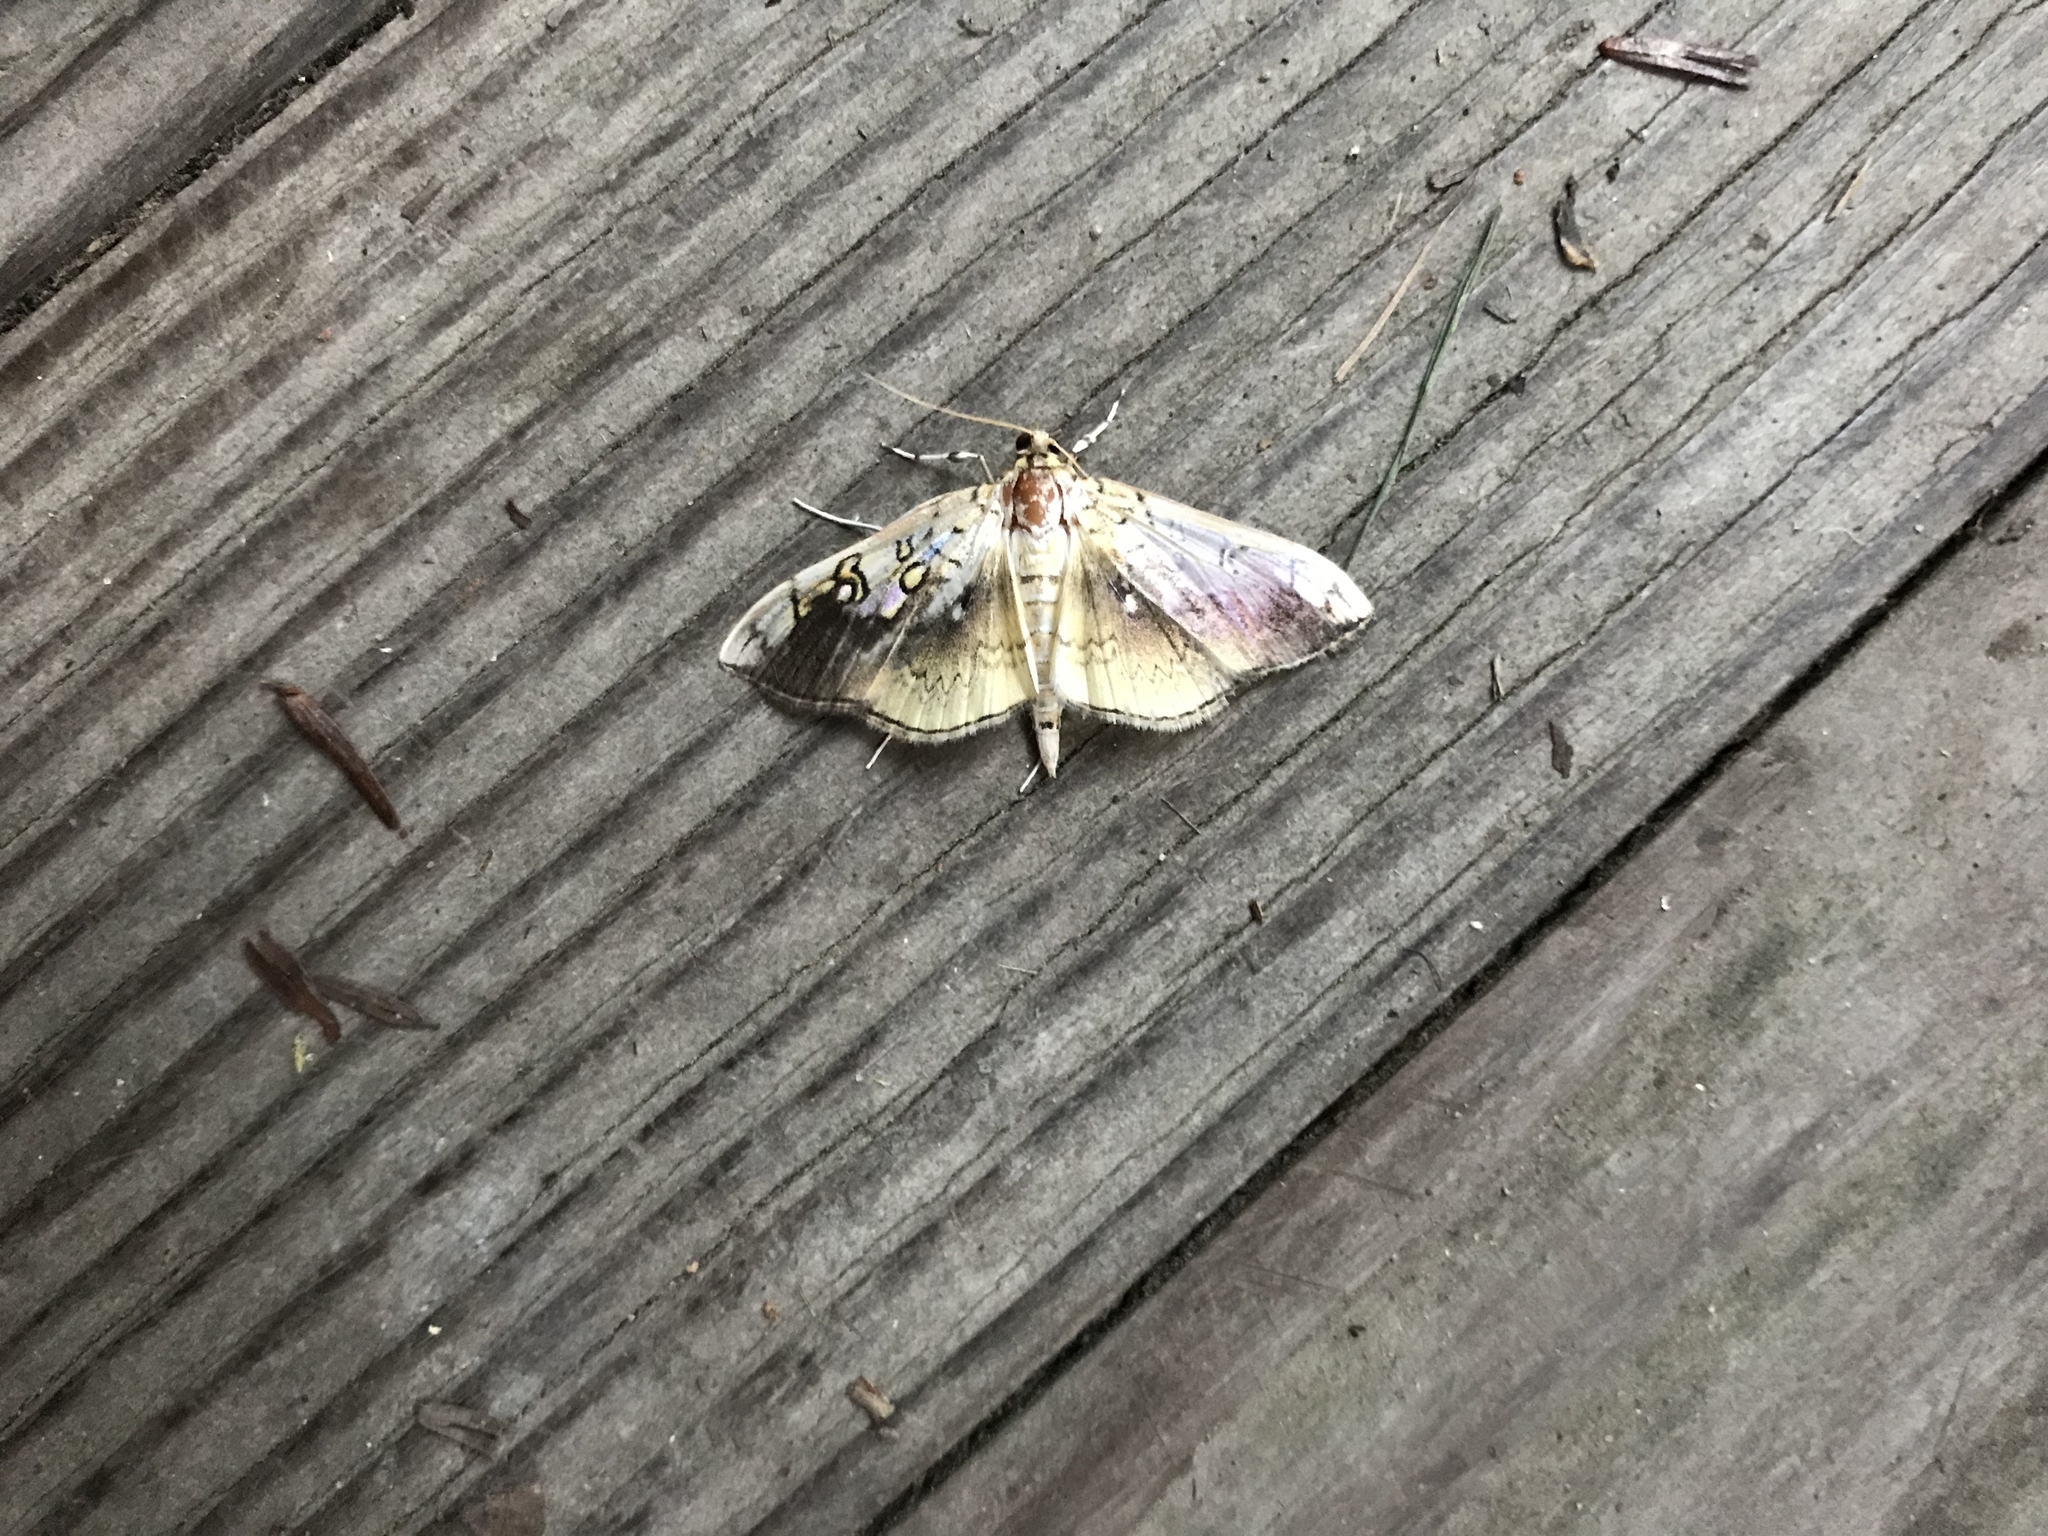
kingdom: Animalia
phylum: Arthropoda
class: Insecta
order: Lepidoptera
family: Crambidae
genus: Pantographa
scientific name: Pantographa limata
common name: Basswood leafroller moth
